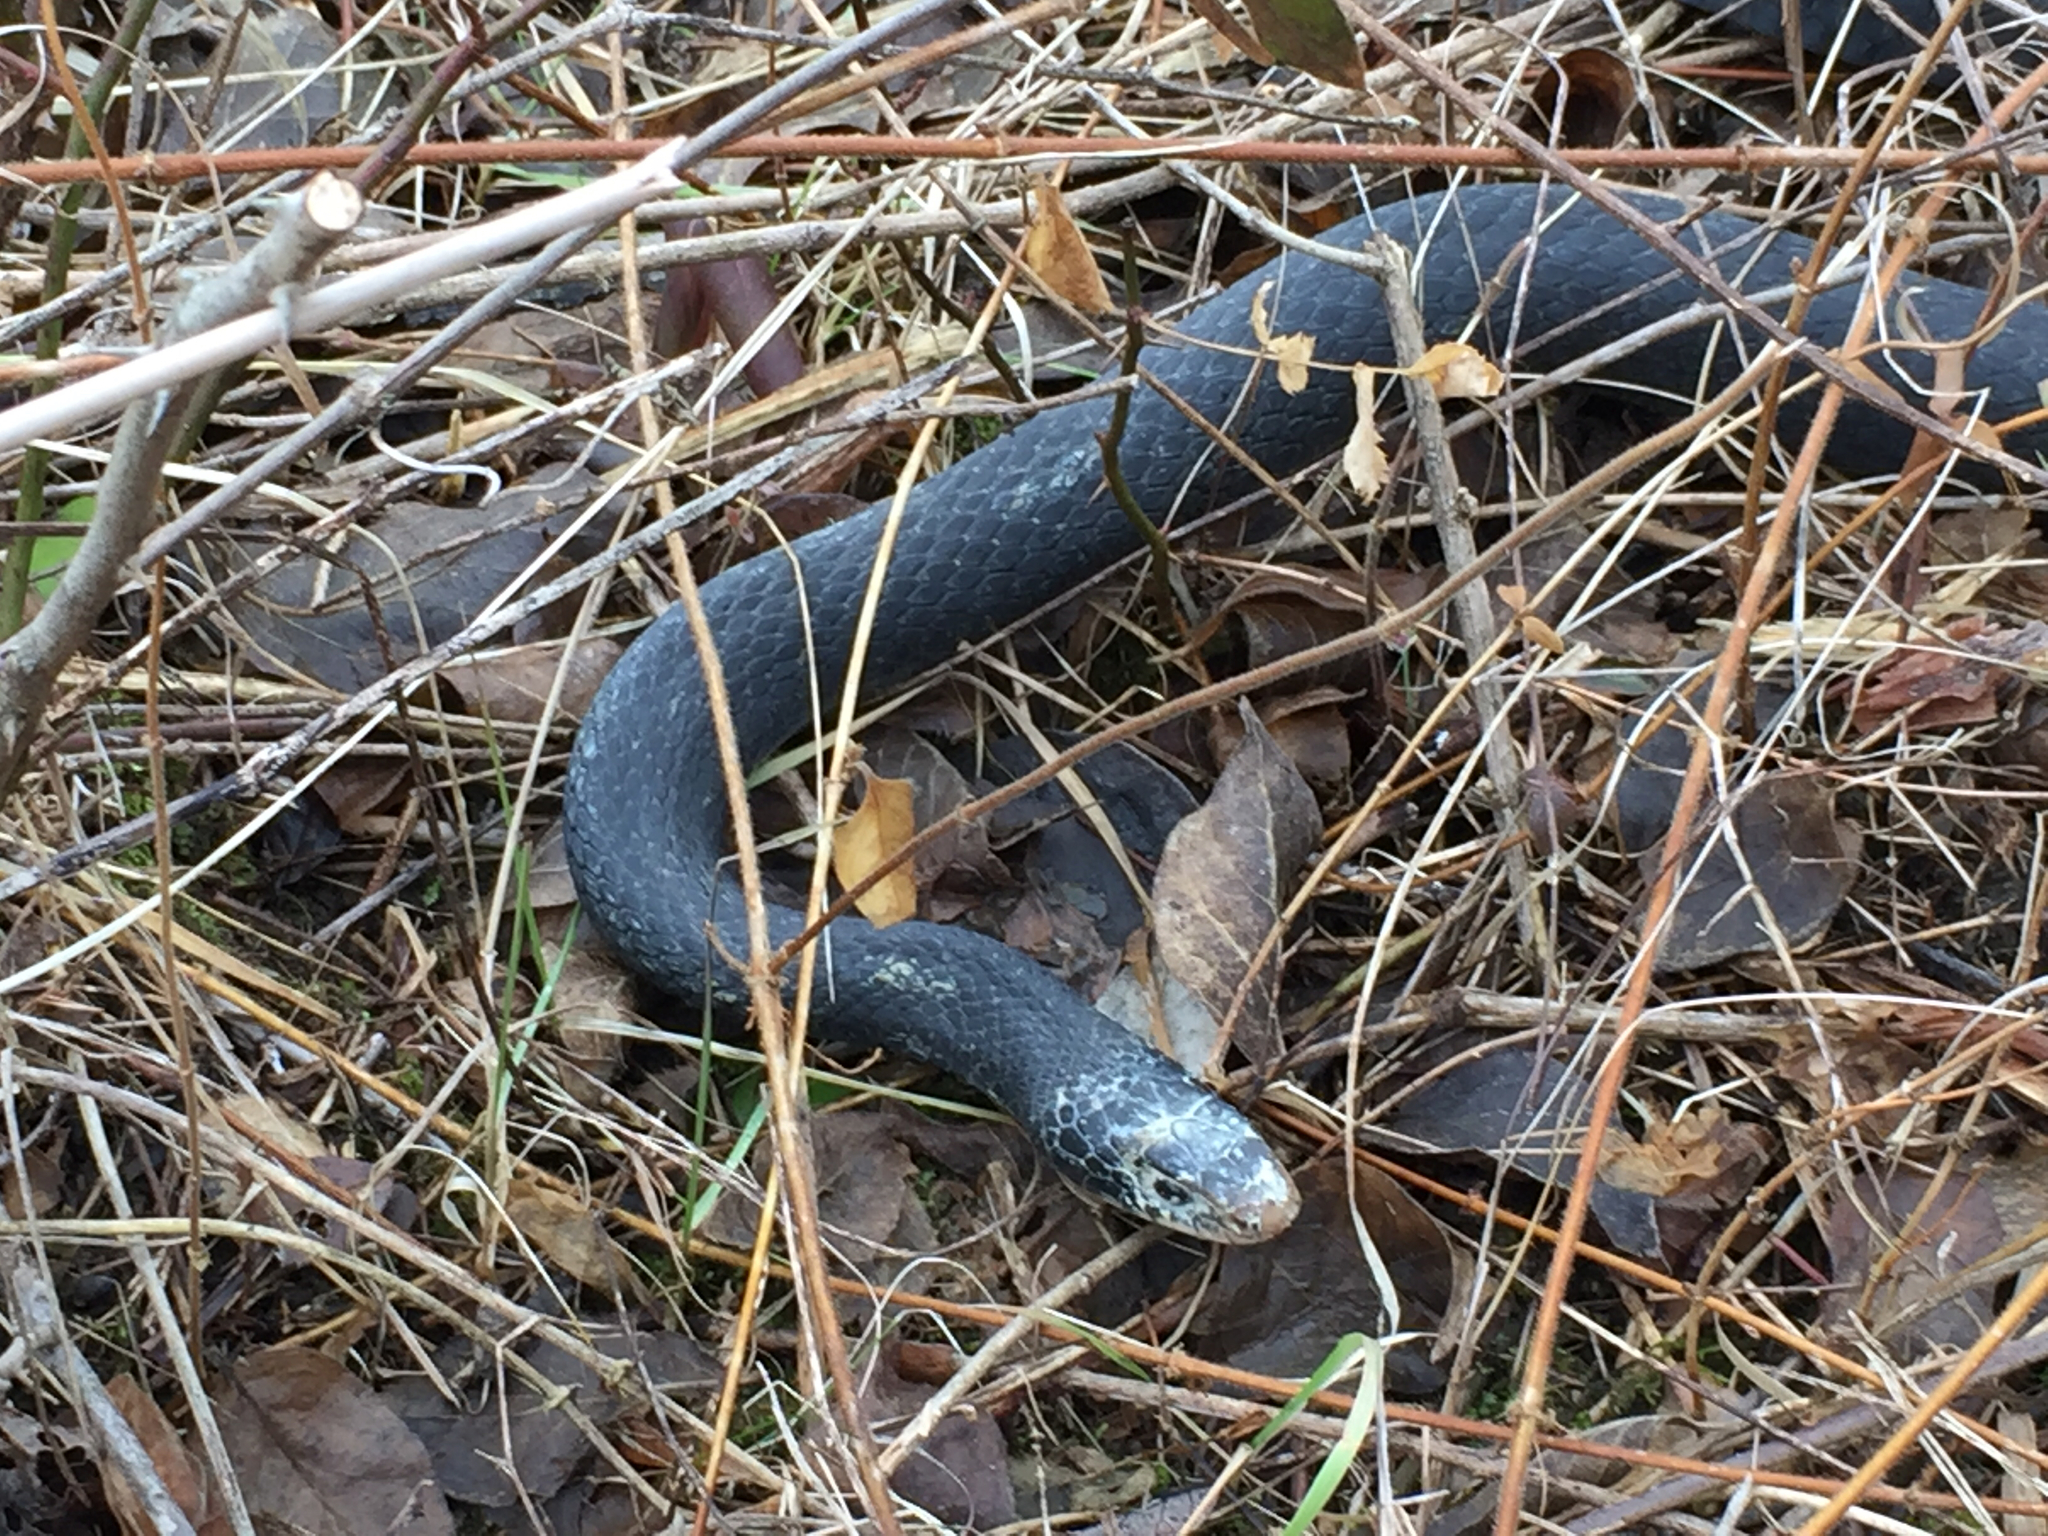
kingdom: Animalia
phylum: Chordata
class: Squamata
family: Colubridae
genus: Coluber
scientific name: Coluber constrictor
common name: Eastern racer
